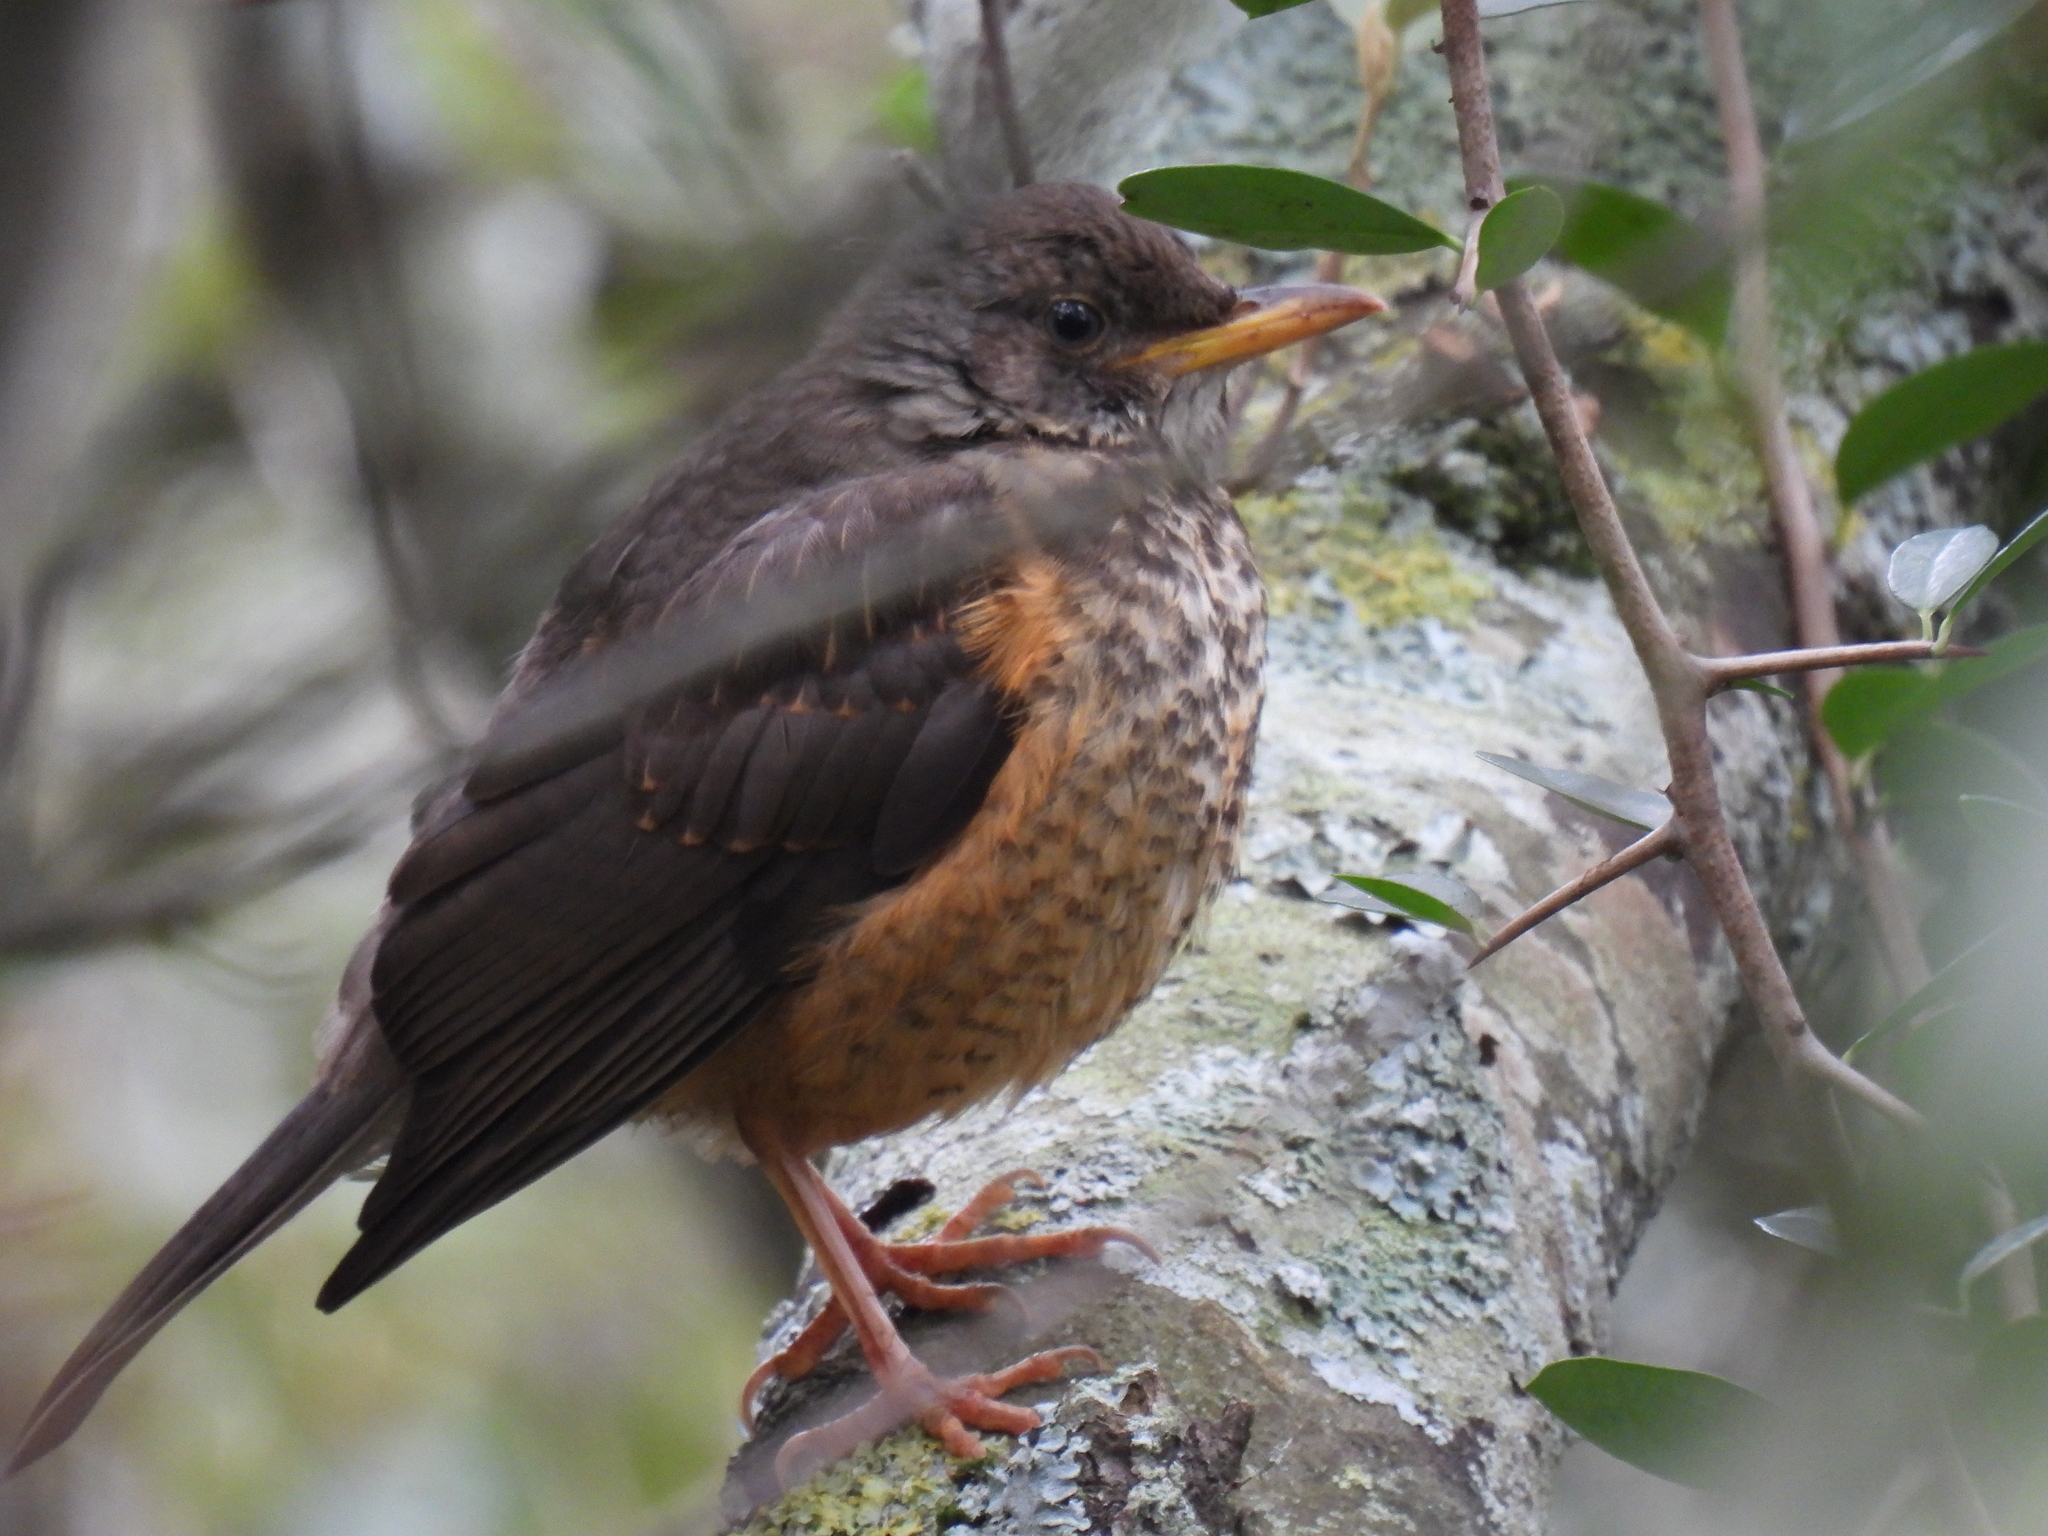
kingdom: Animalia
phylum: Chordata
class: Aves
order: Passeriformes
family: Turdidae
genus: Turdus
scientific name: Turdus olivaceus
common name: Olive thrush
